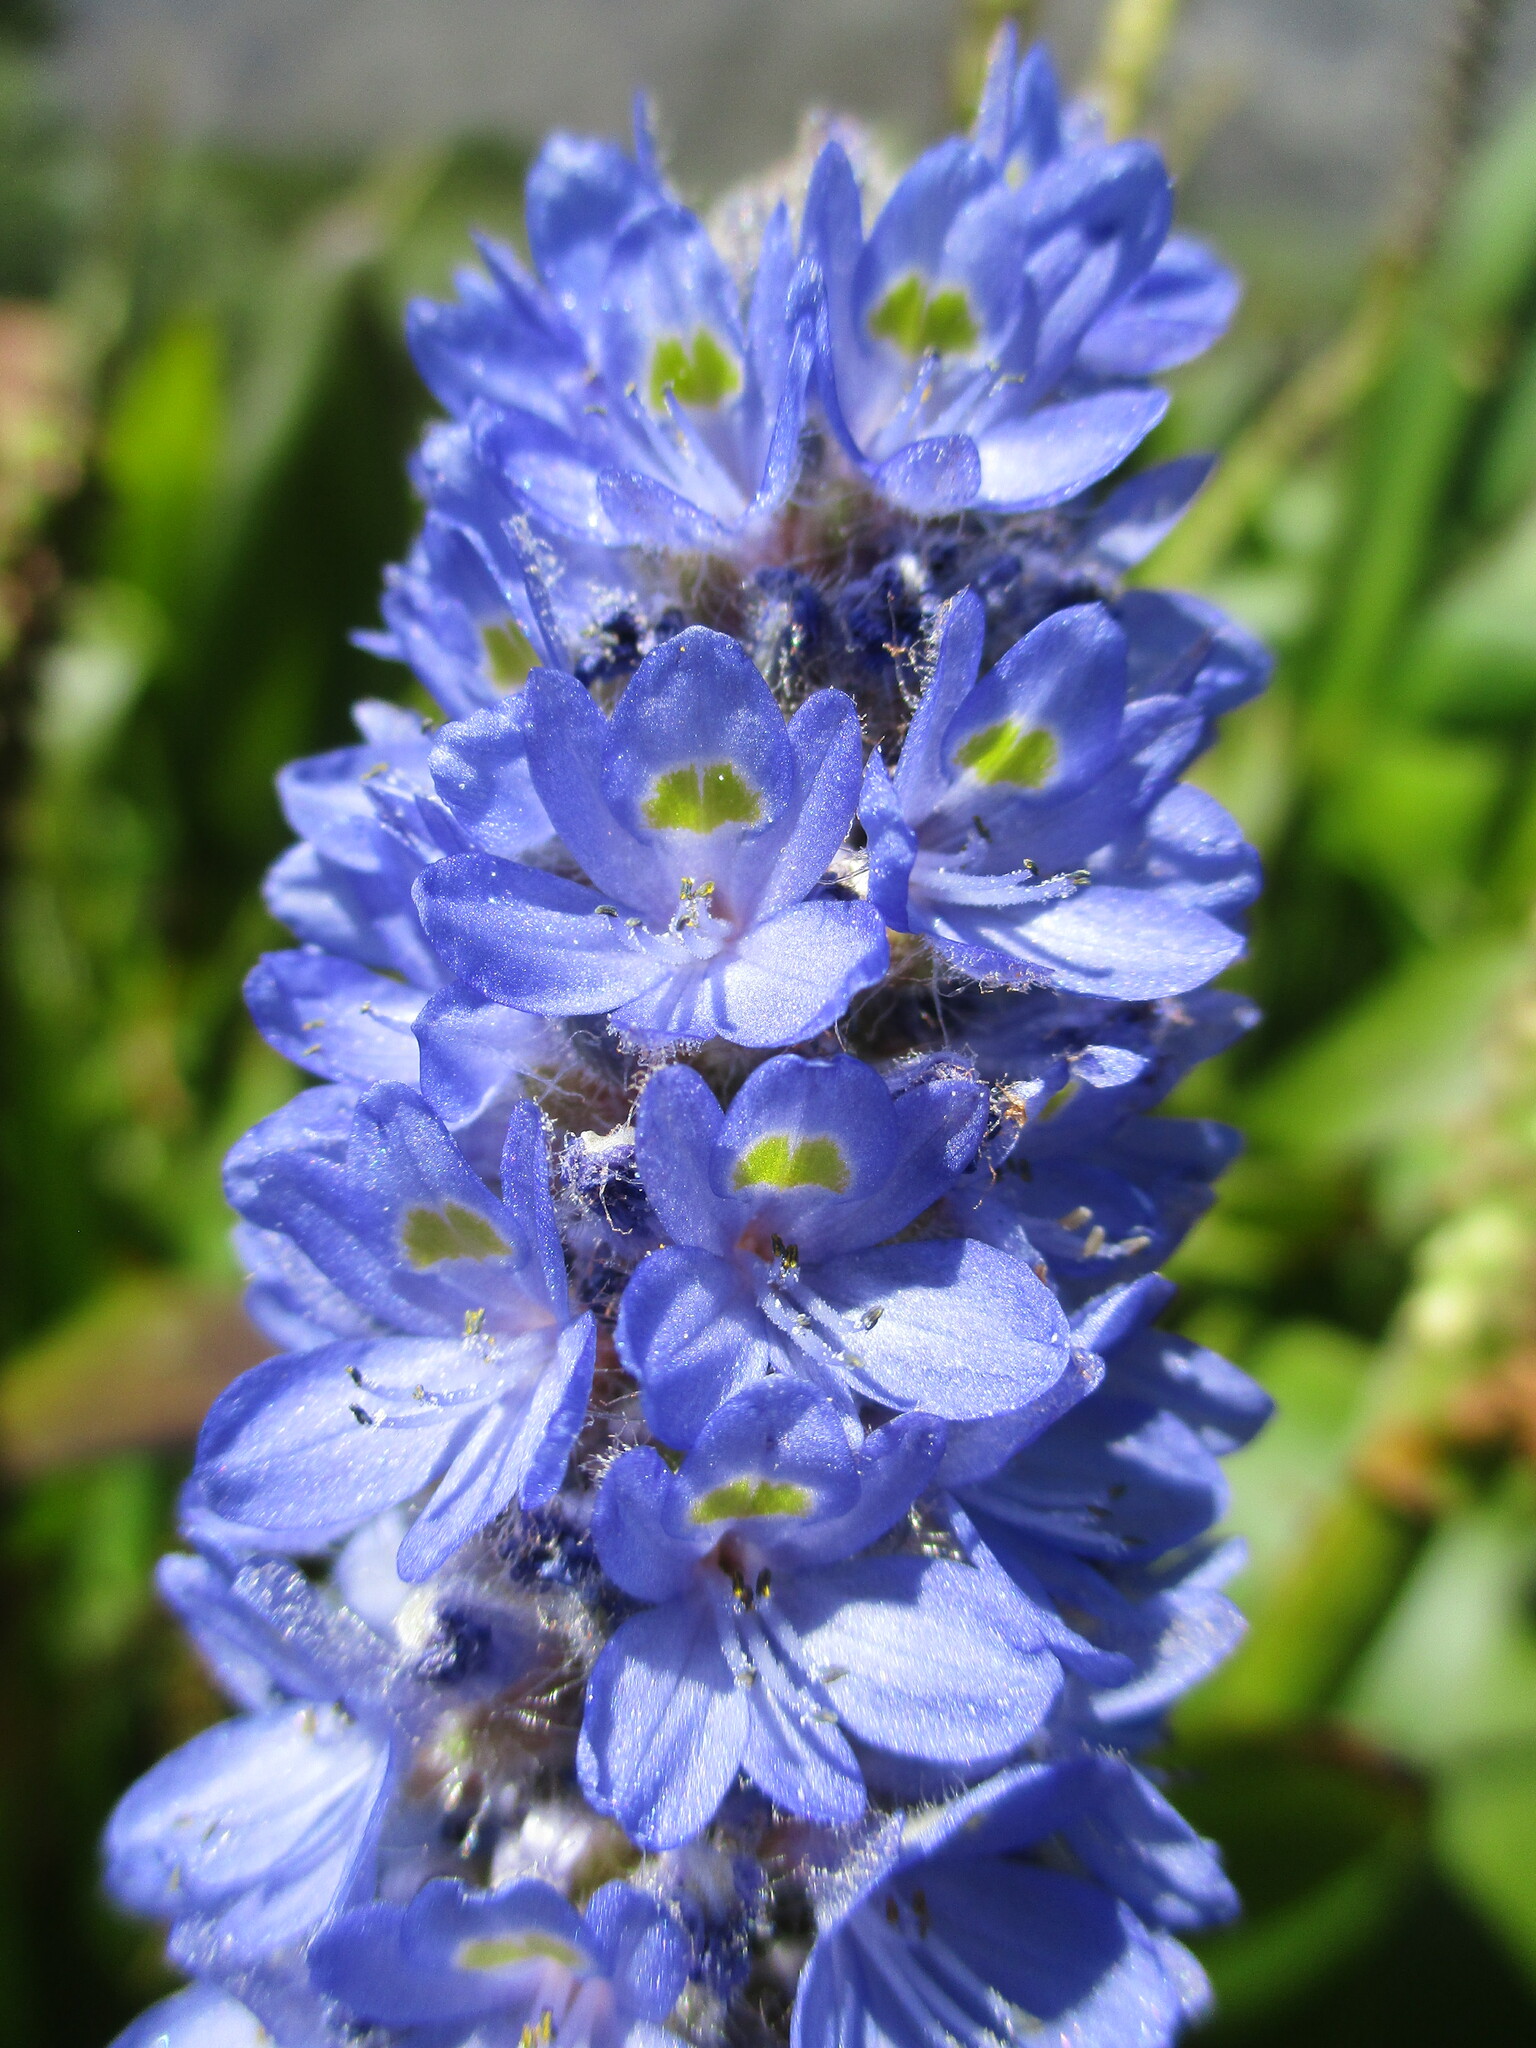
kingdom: Plantae
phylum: Tracheophyta
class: Liliopsida
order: Commelinales
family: Pontederiaceae
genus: Pontederia
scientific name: Pontederia cordata
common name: Pickerelweed
